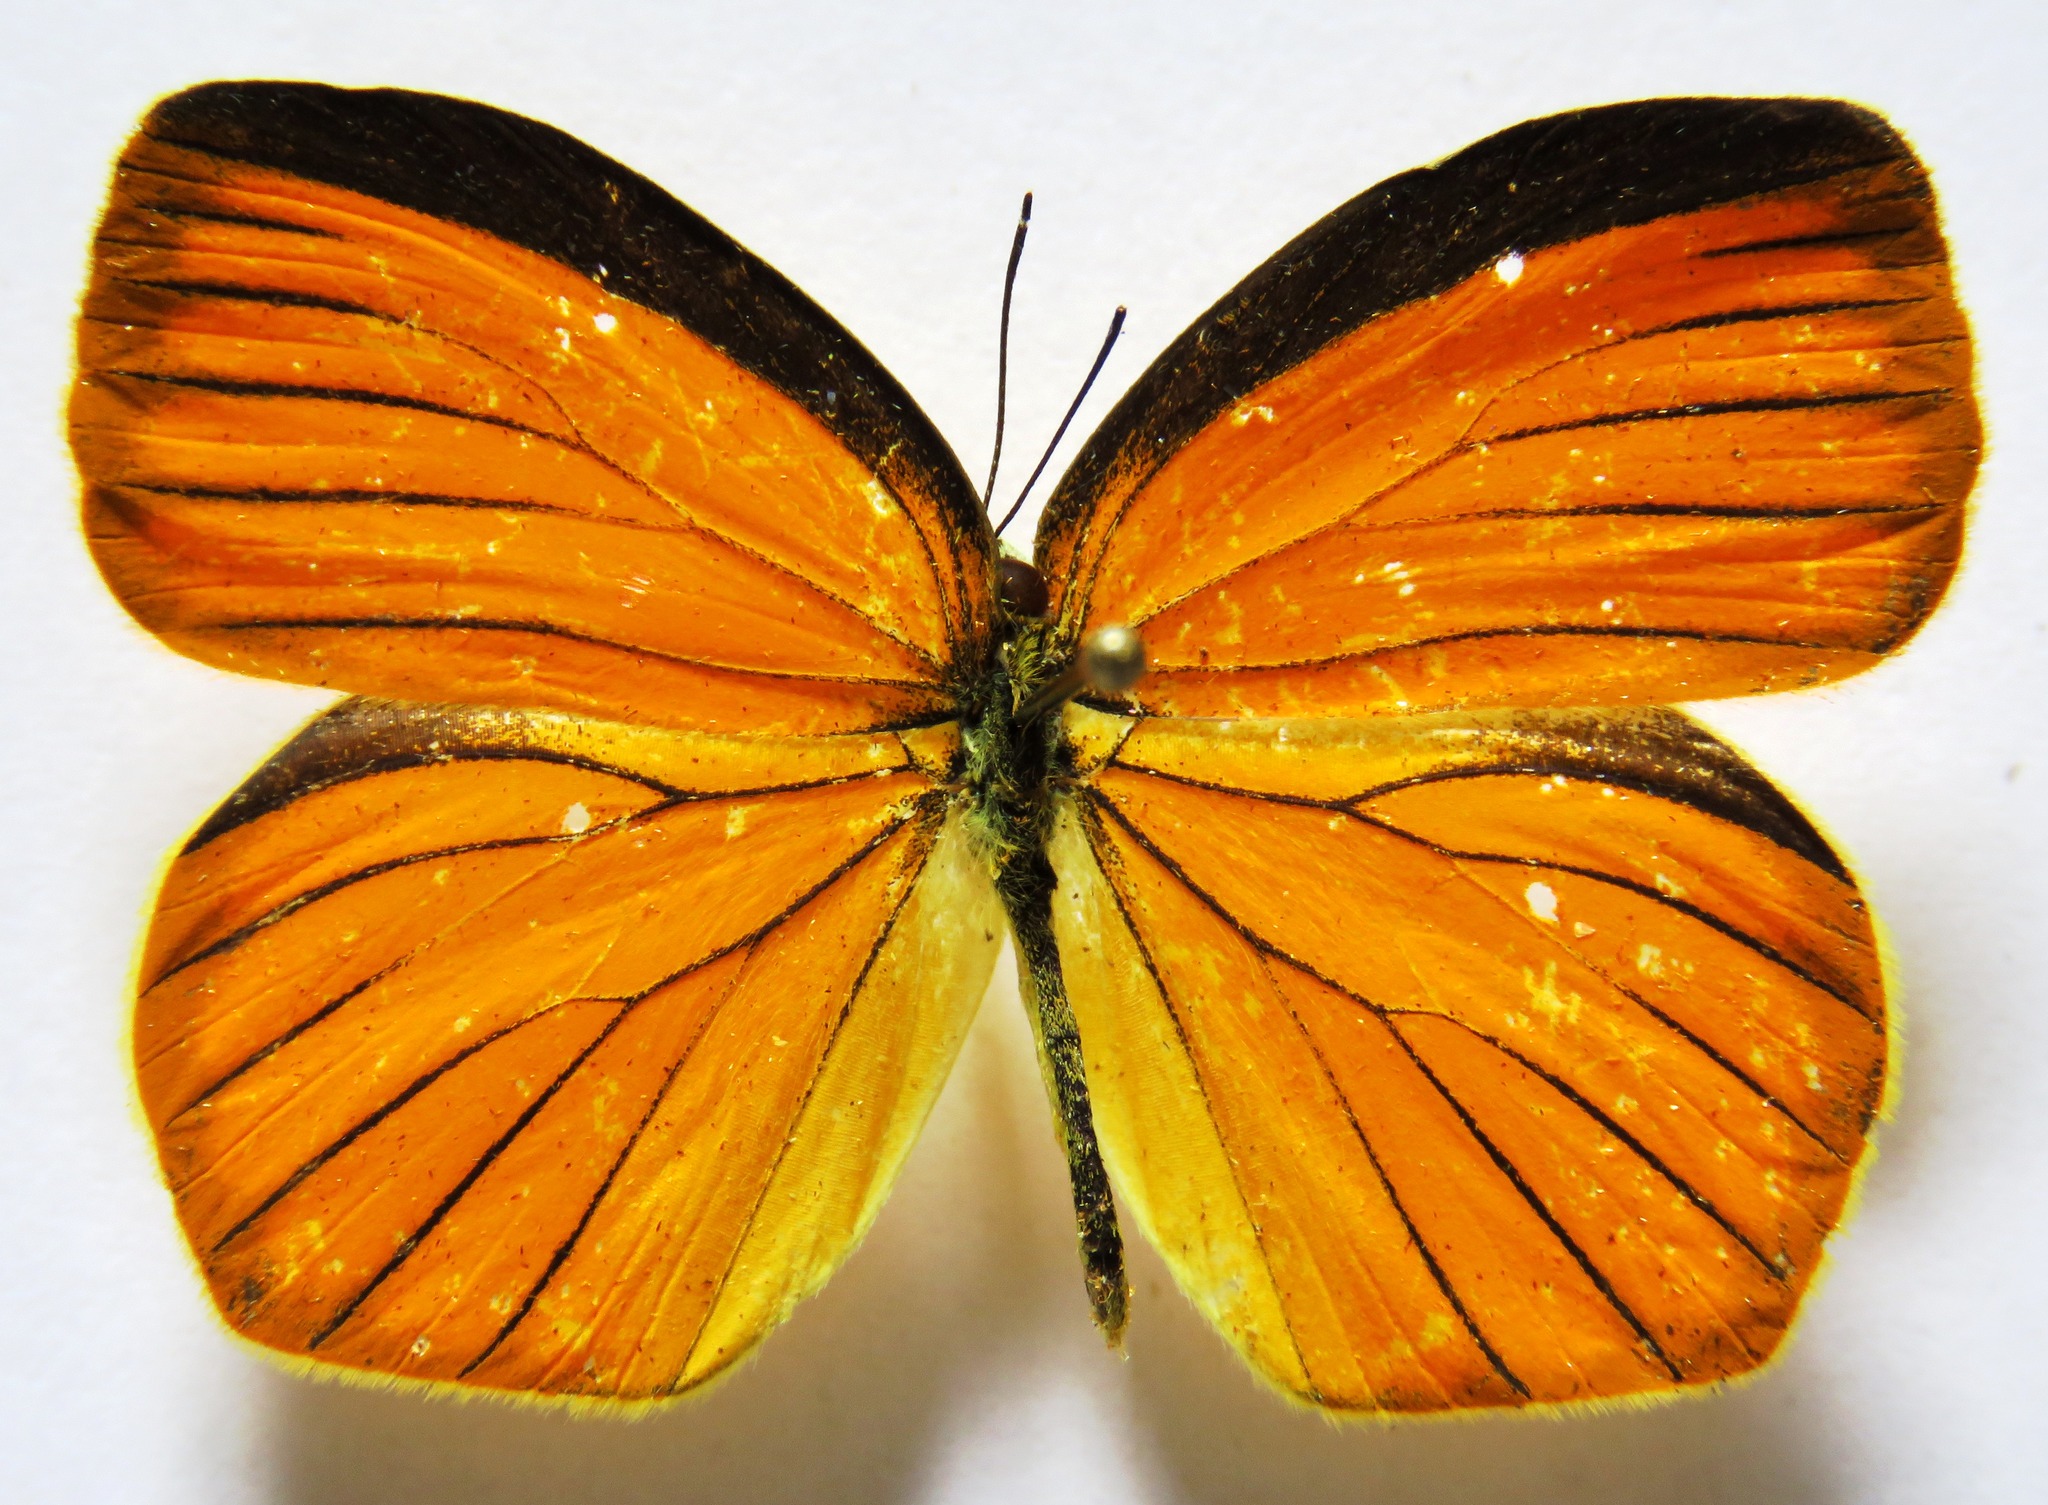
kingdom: Animalia
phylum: Arthropoda
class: Insecta
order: Lepidoptera
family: Pieridae
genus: Pyrisitia
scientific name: Pyrisitia proterpia
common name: Tailed orange
